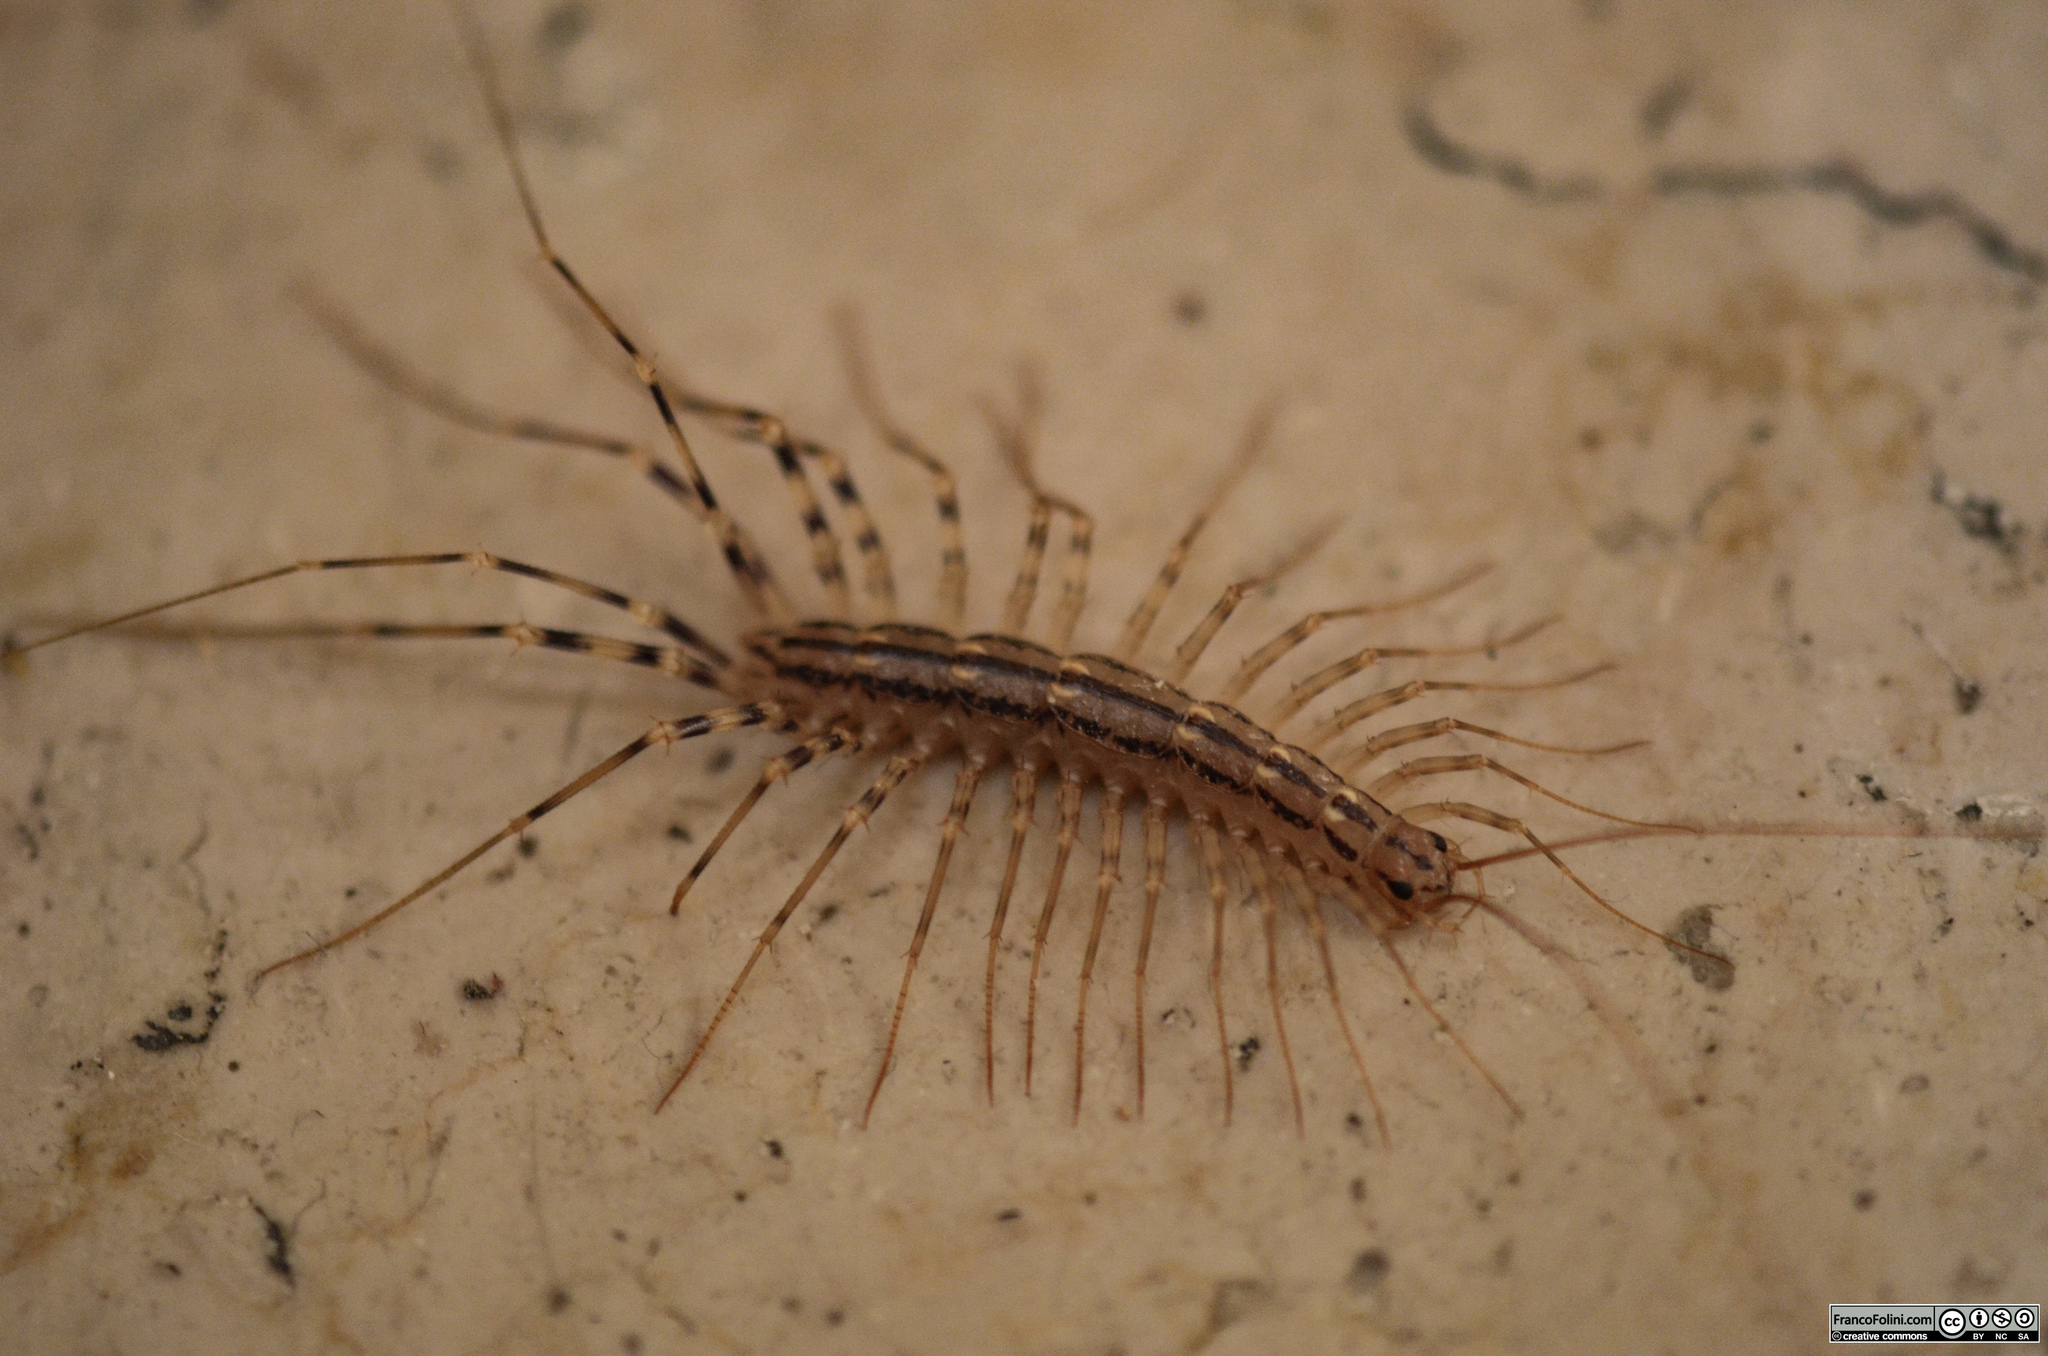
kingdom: Animalia
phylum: Arthropoda
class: Chilopoda
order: Scutigeromorpha
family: Scutigeridae
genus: Scutigera
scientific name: Scutigera coleoptrata
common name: House centipede
